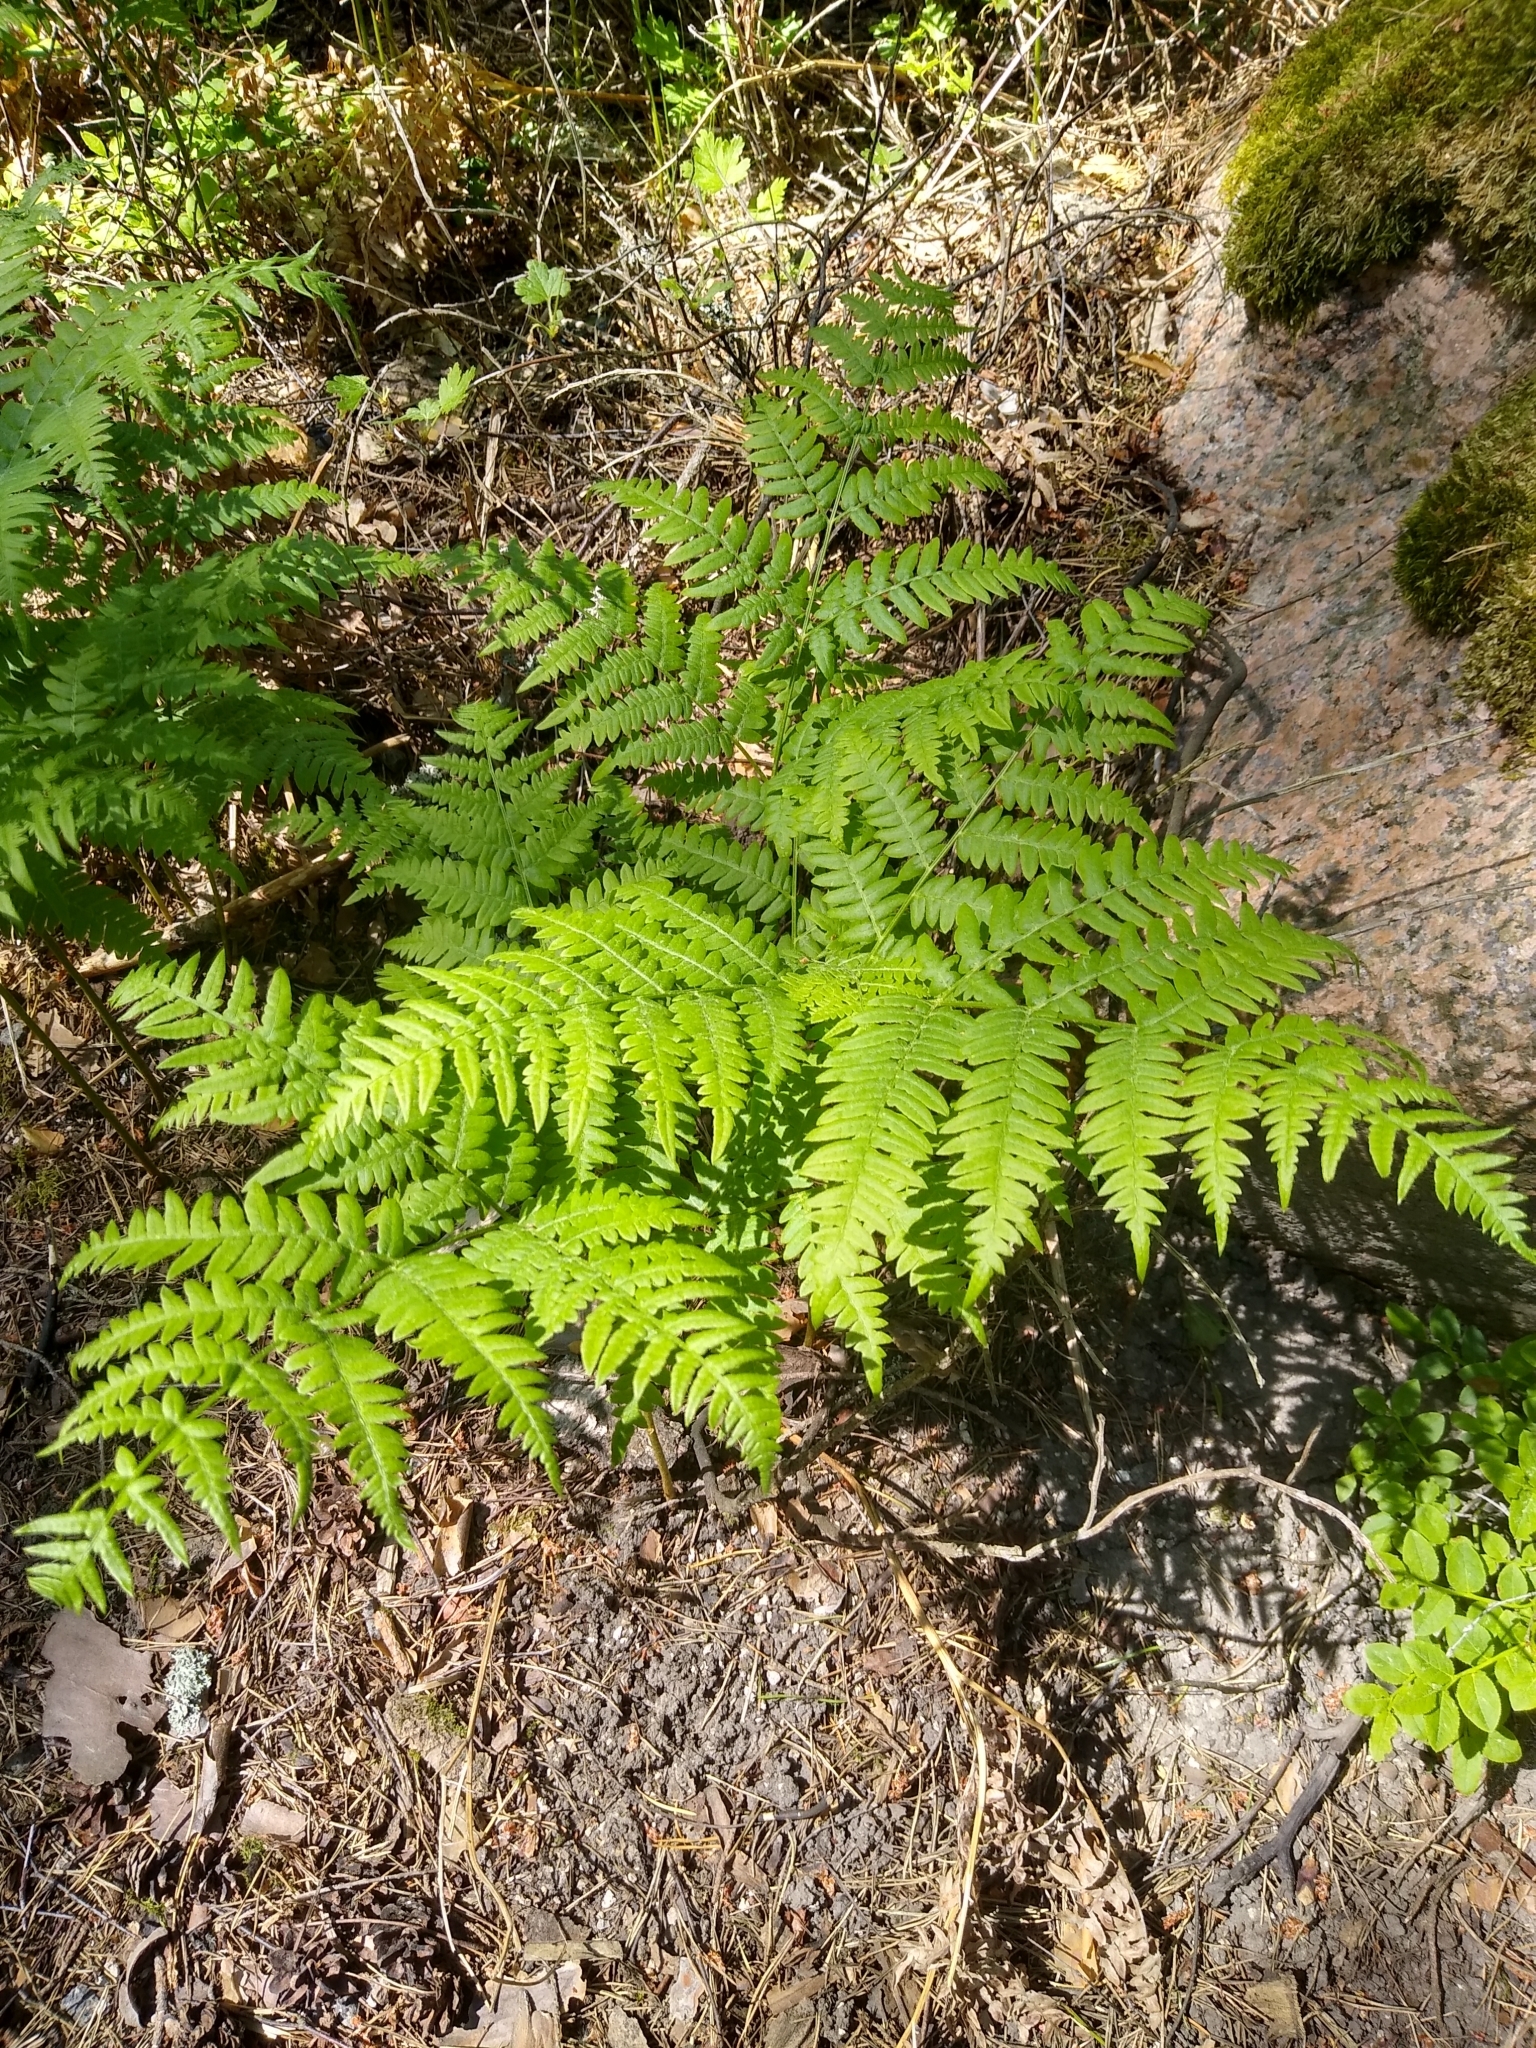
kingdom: Plantae
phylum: Tracheophyta
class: Polypodiopsida
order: Polypodiales
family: Dennstaedtiaceae
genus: Pteridium
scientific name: Pteridium aquilinum
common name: Bracken
